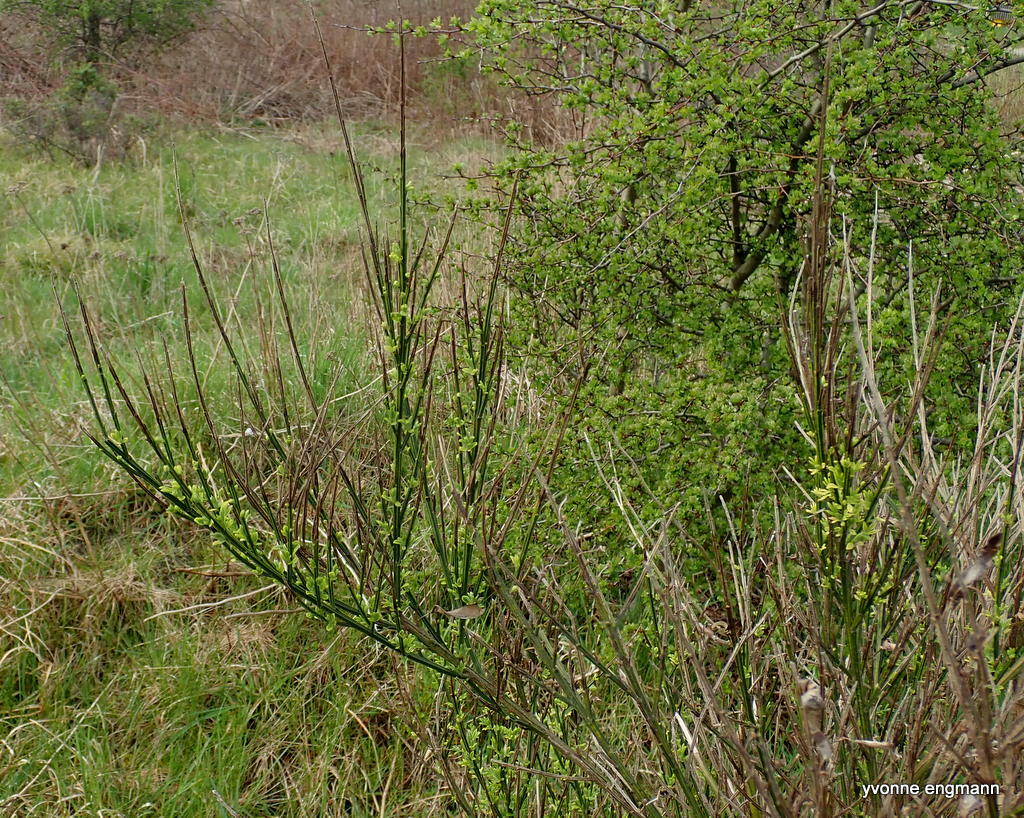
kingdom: Plantae
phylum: Tracheophyta
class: Magnoliopsida
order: Fabales
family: Fabaceae
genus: Cytisus
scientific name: Cytisus scoparius
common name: Scotch broom
